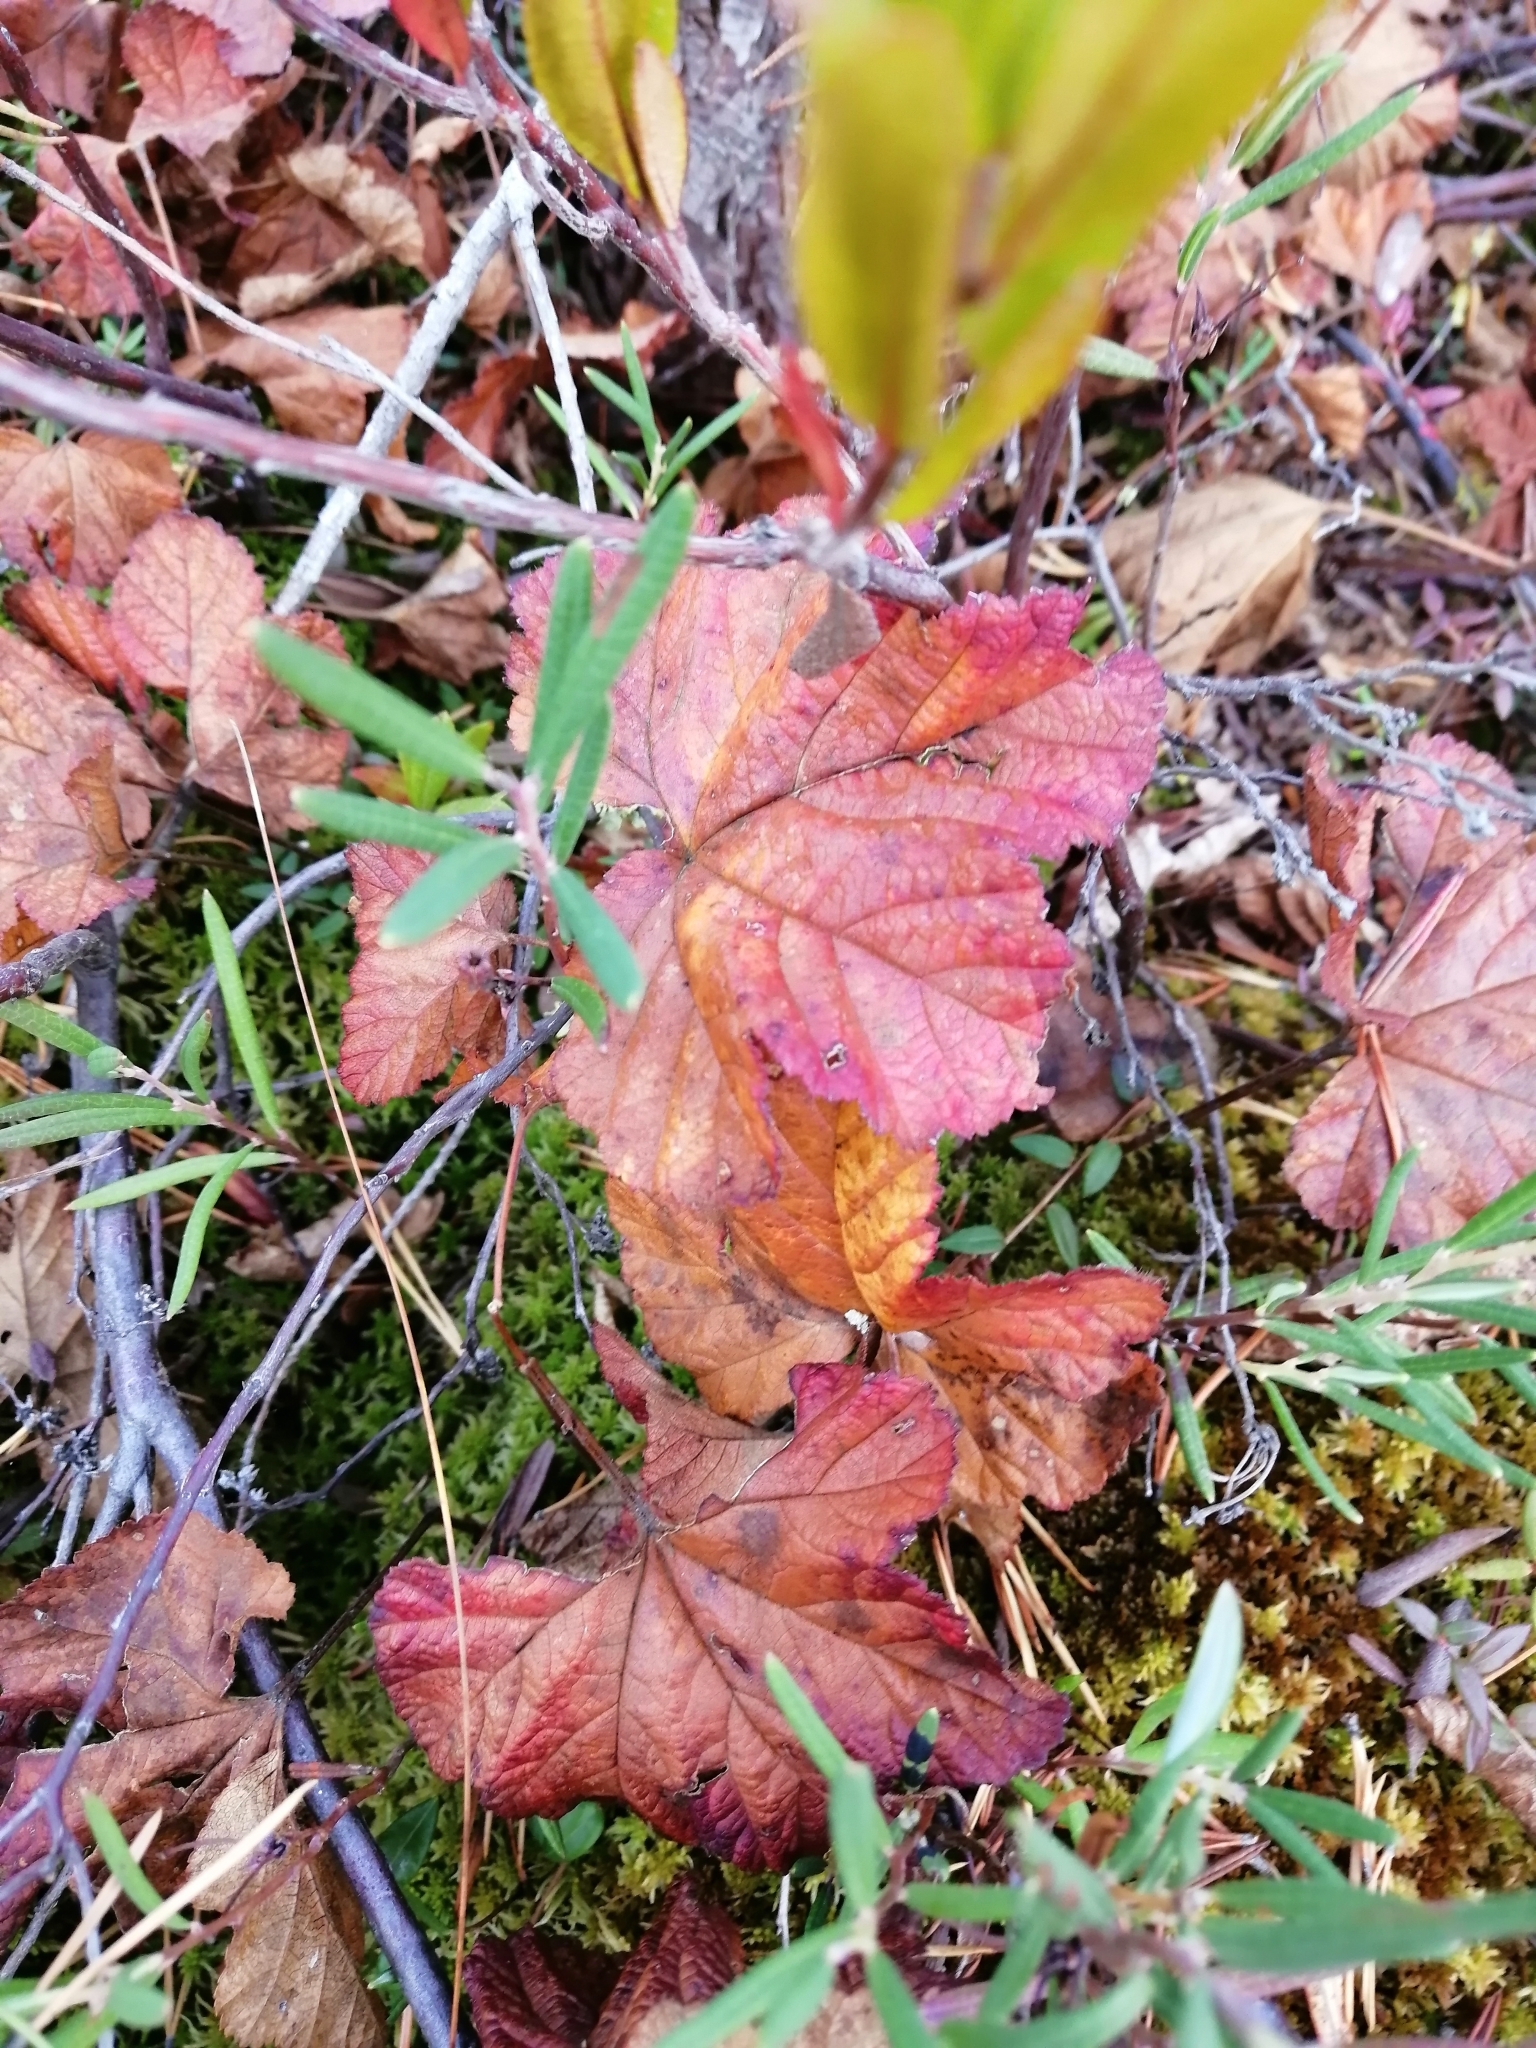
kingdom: Plantae
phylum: Tracheophyta
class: Magnoliopsida
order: Rosales
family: Rosaceae
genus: Rubus
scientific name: Rubus chamaemorus
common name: Cloudberry
